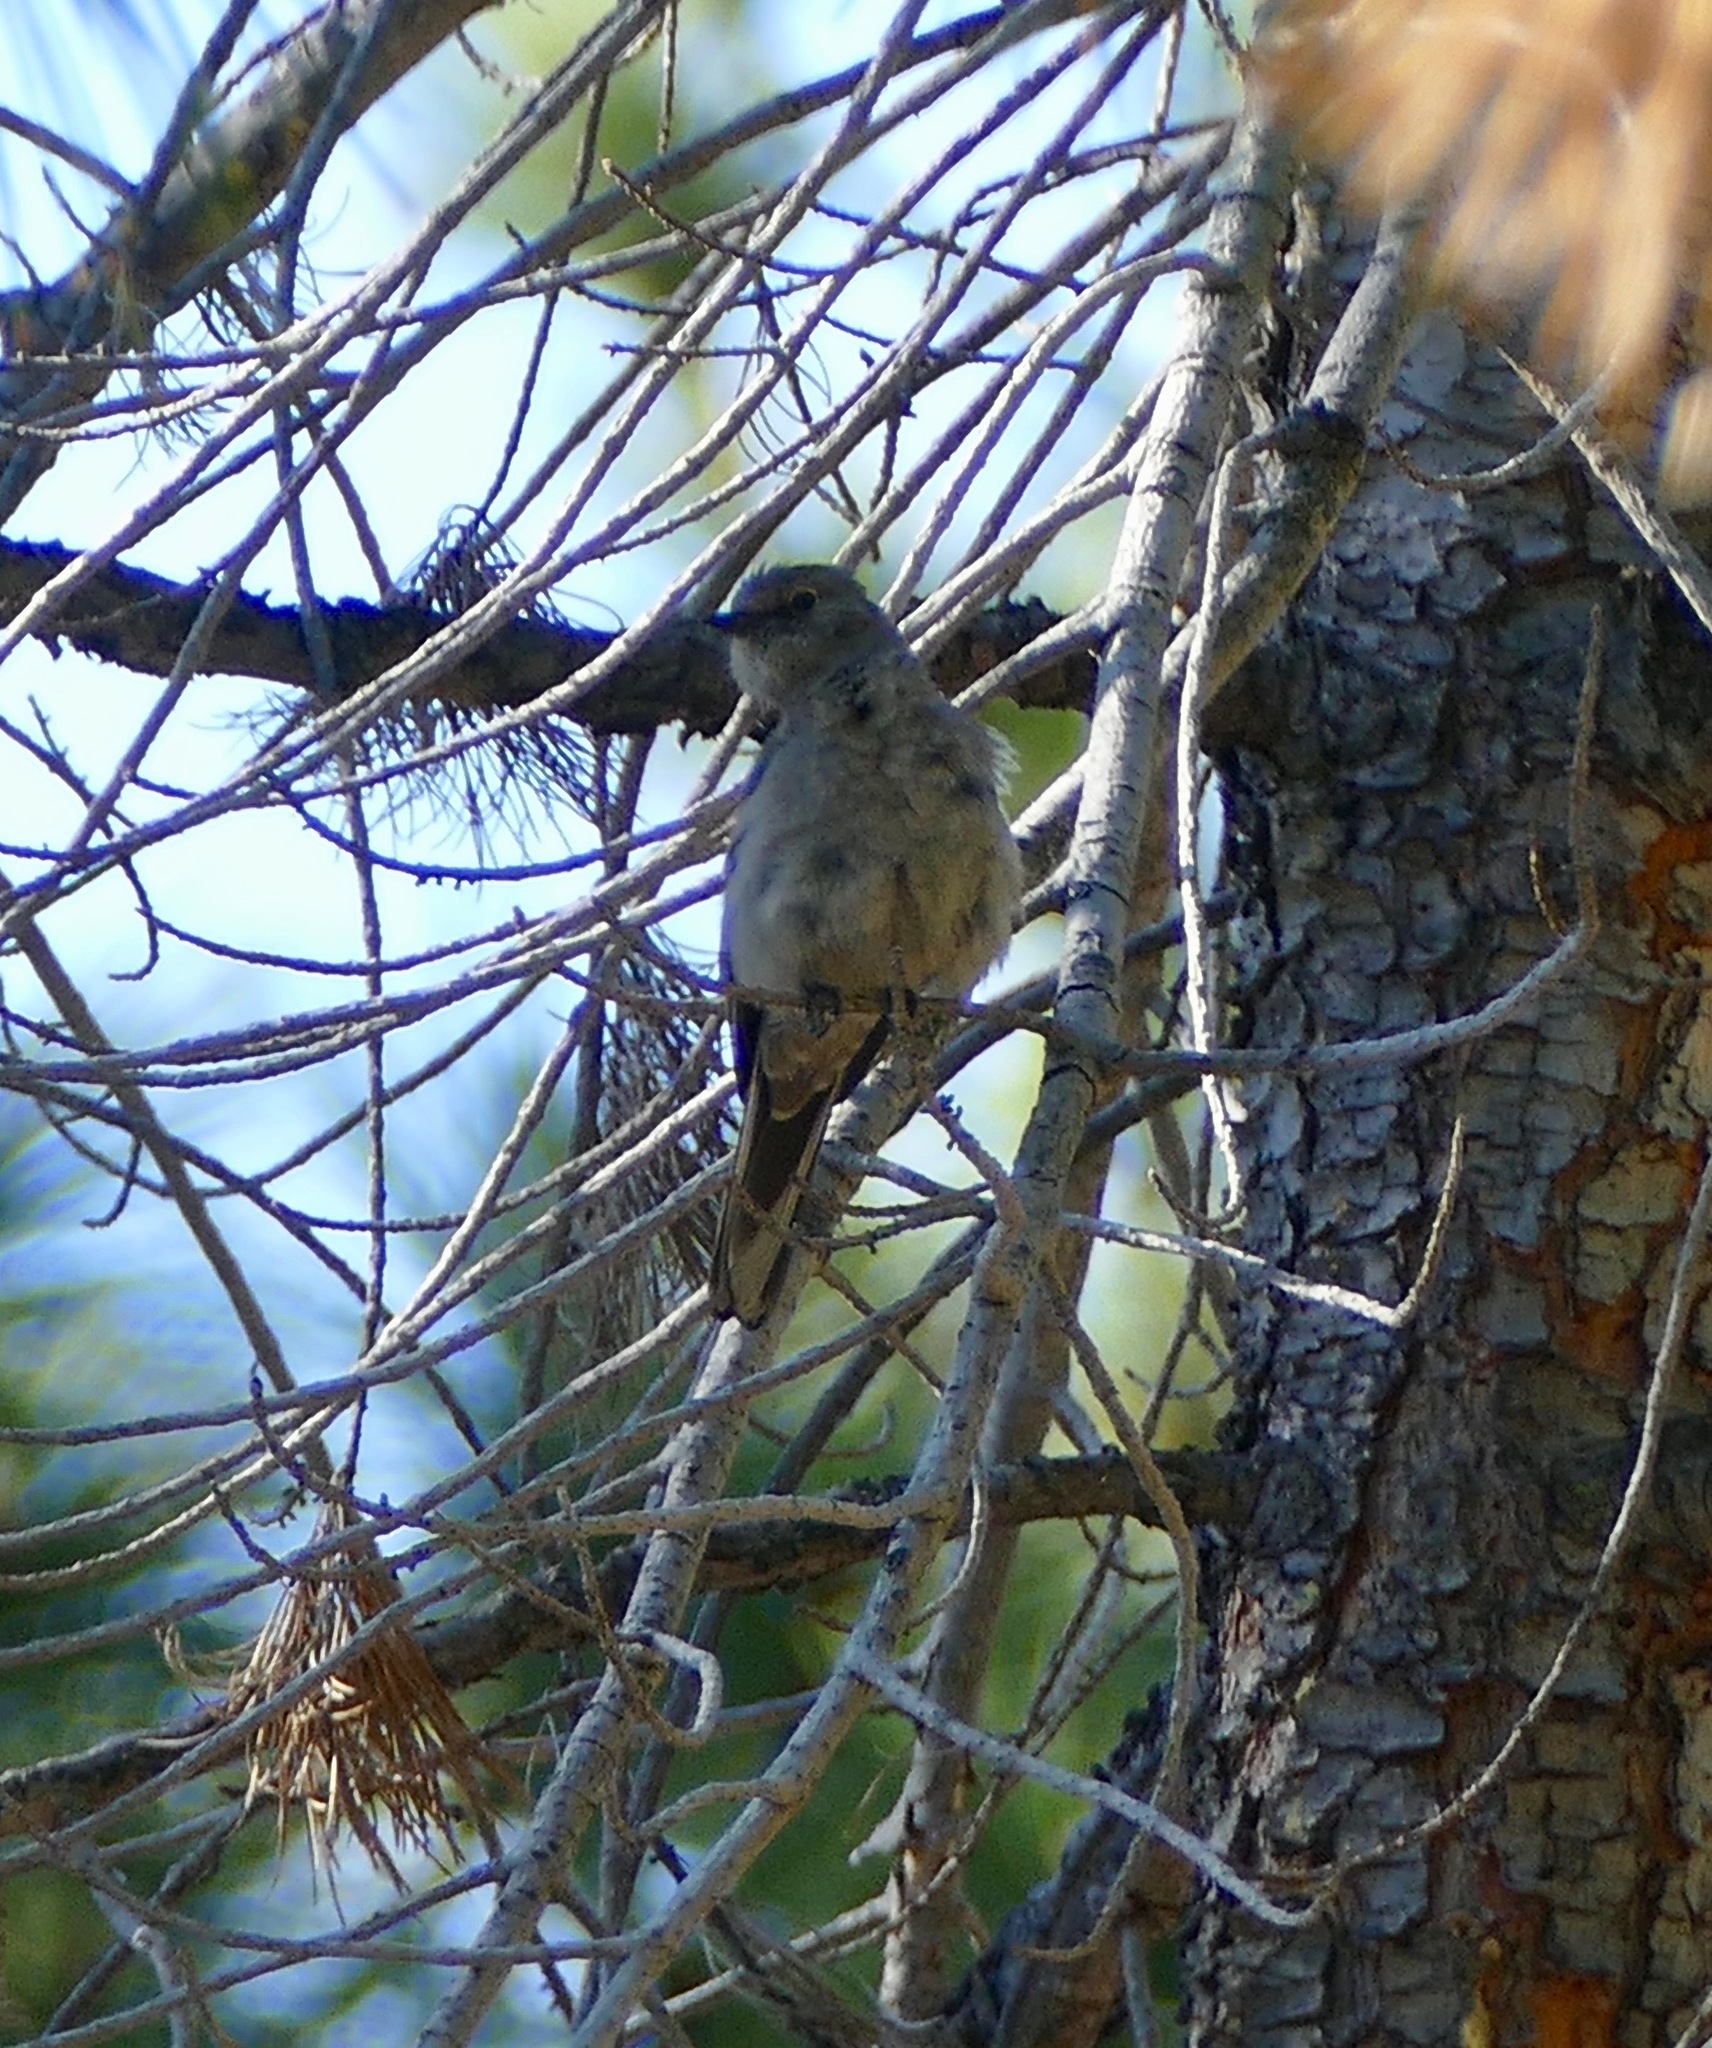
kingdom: Animalia
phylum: Chordata
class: Aves
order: Passeriformes
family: Turdidae
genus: Myadestes
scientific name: Myadestes townsendi
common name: Townsend's solitaire
